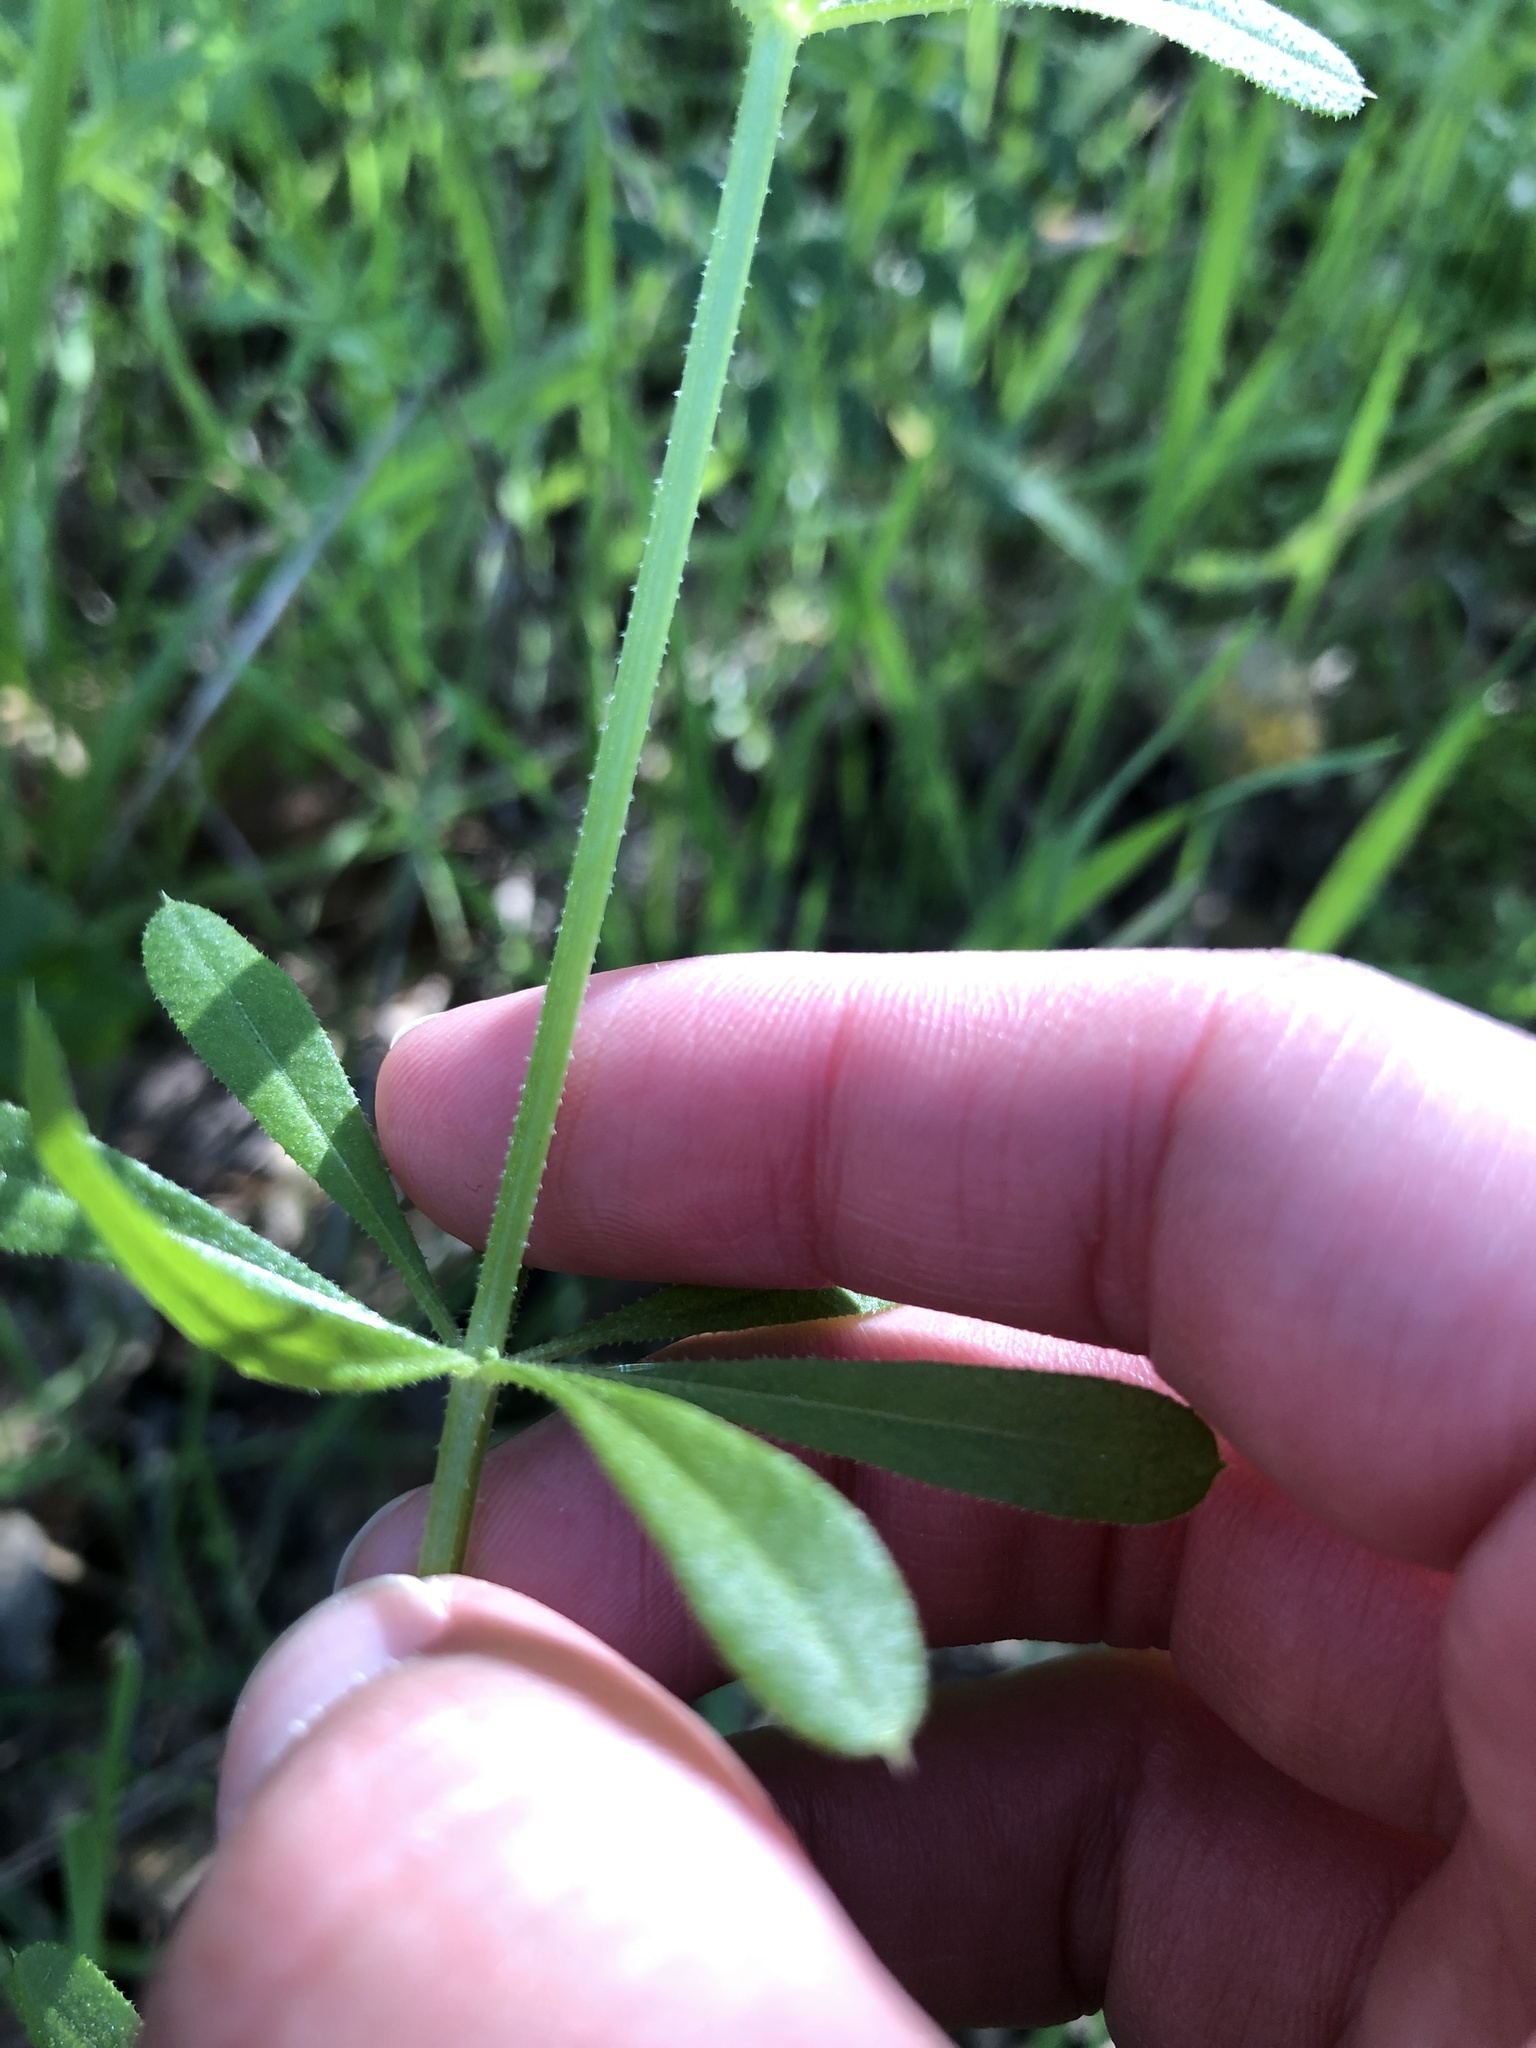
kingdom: Plantae
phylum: Tracheophyta
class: Magnoliopsida
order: Gentianales
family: Rubiaceae
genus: Galium
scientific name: Galium aparine
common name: Cleavers
